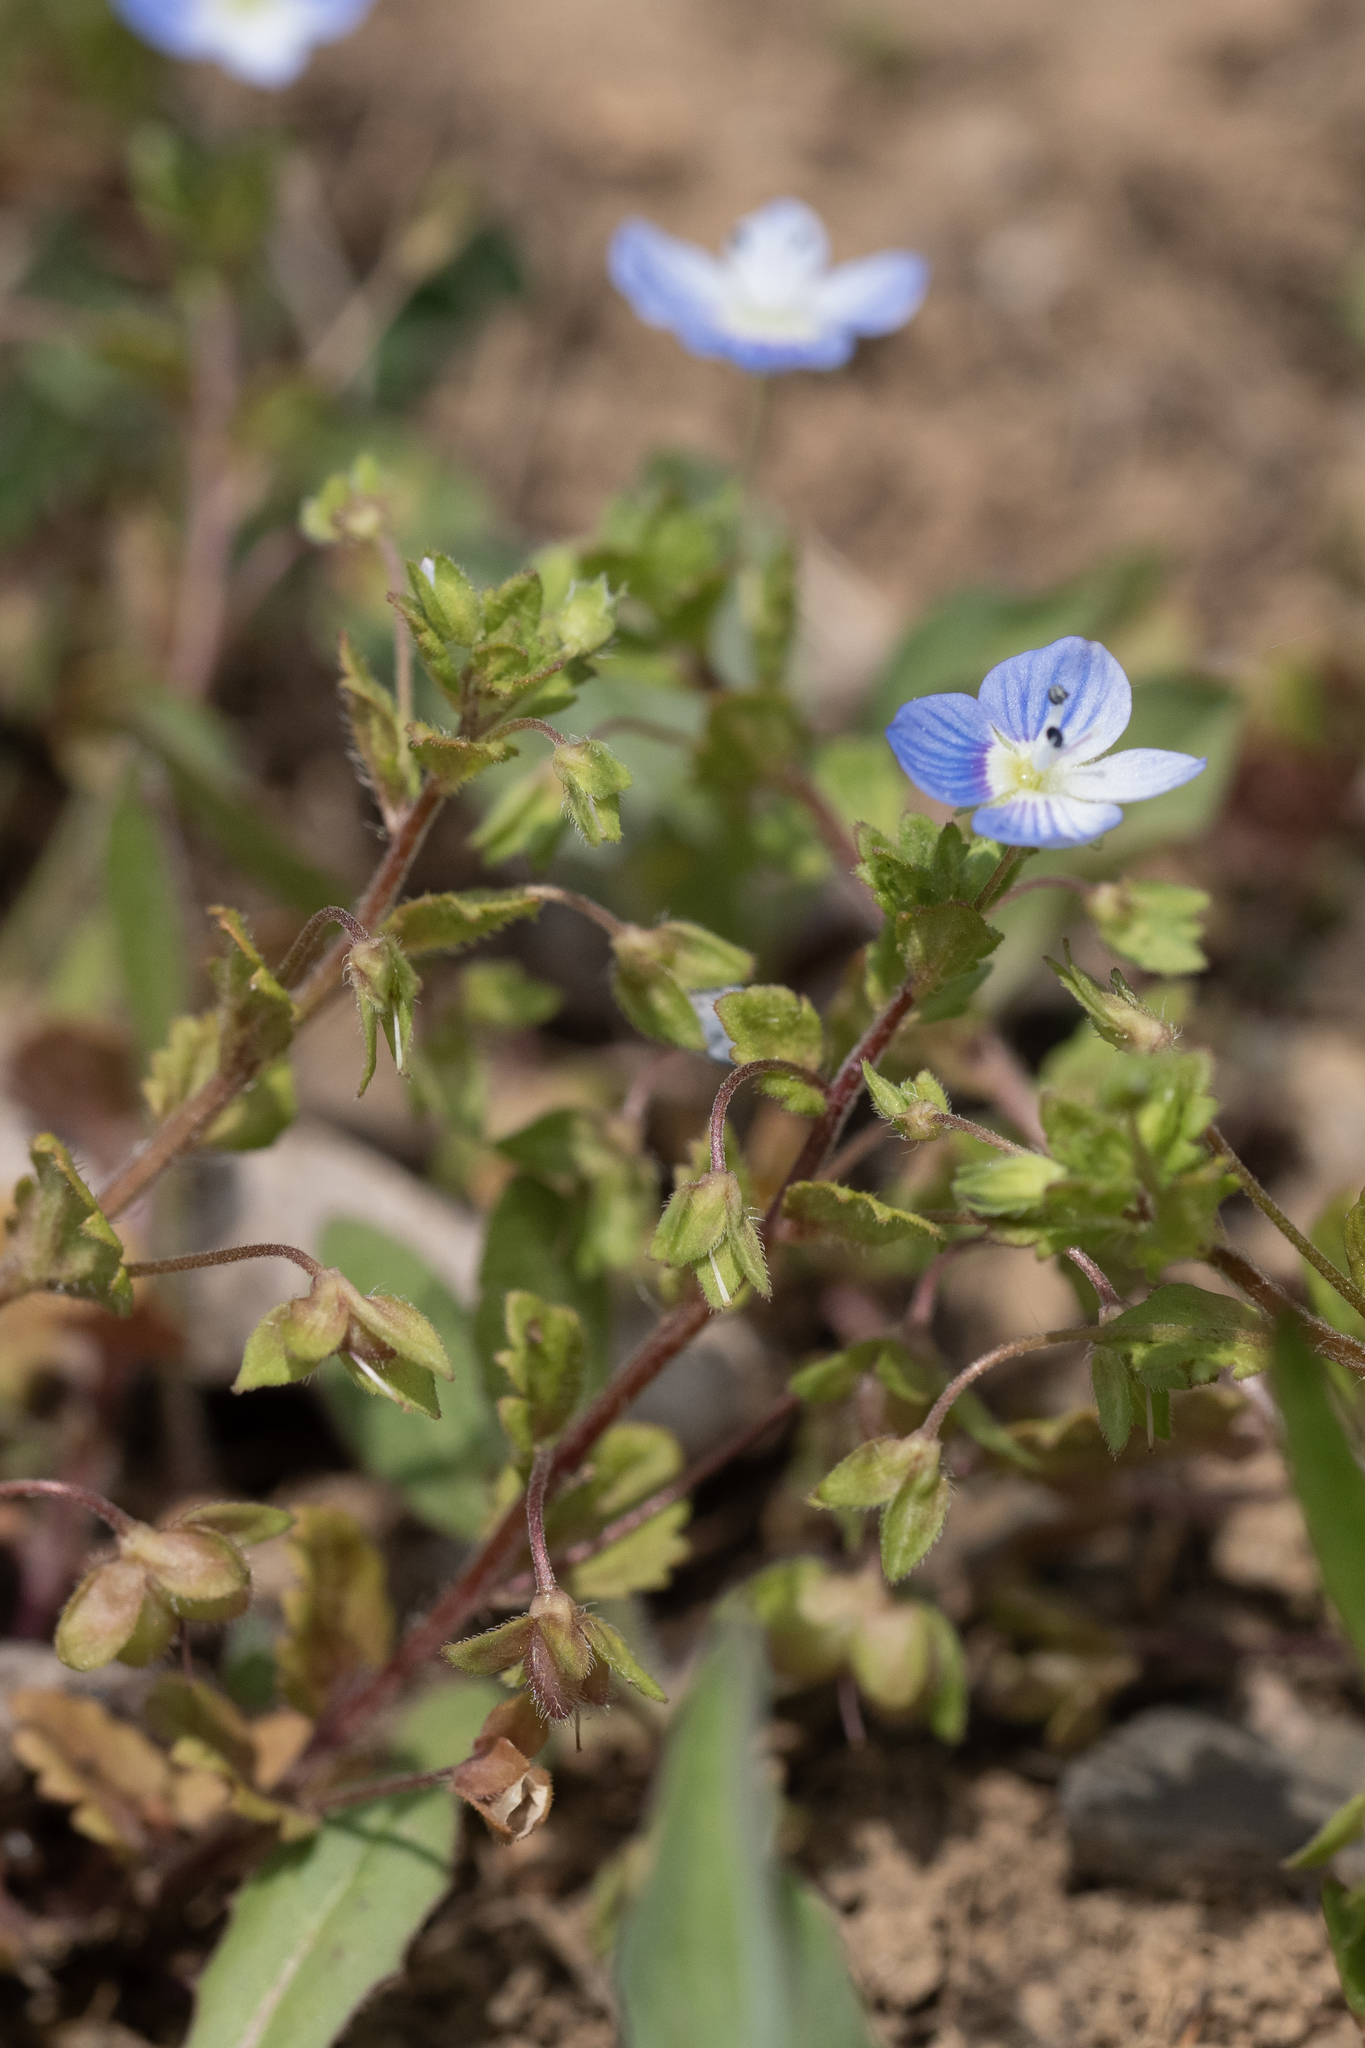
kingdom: Plantae
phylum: Tracheophyta
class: Magnoliopsida
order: Lamiales
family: Plantaginaceae
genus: Veronica
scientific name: Veronica persica
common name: Common field-speedwell
